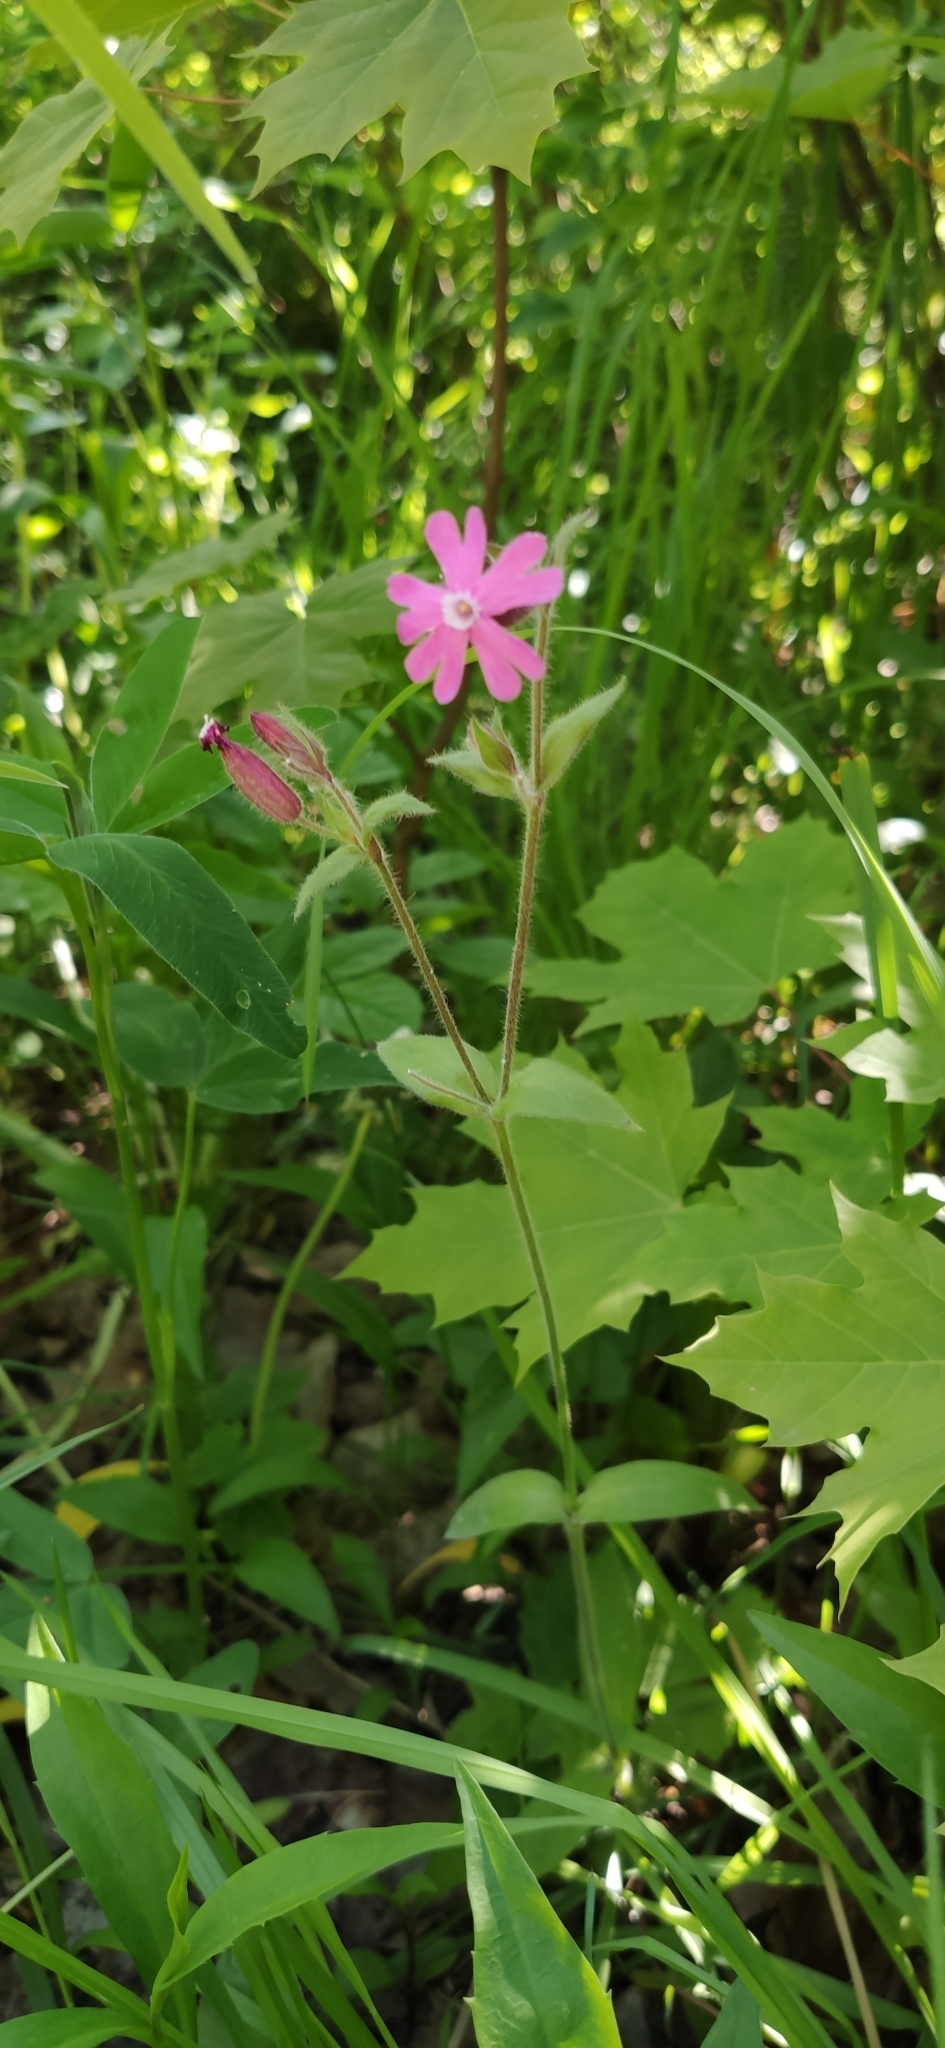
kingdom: Plantae
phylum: Tracheophyta
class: Magnoliopsida
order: Caryophyllales
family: Caryophyllaceae
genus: Silene
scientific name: Silene dioica
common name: Red campion
